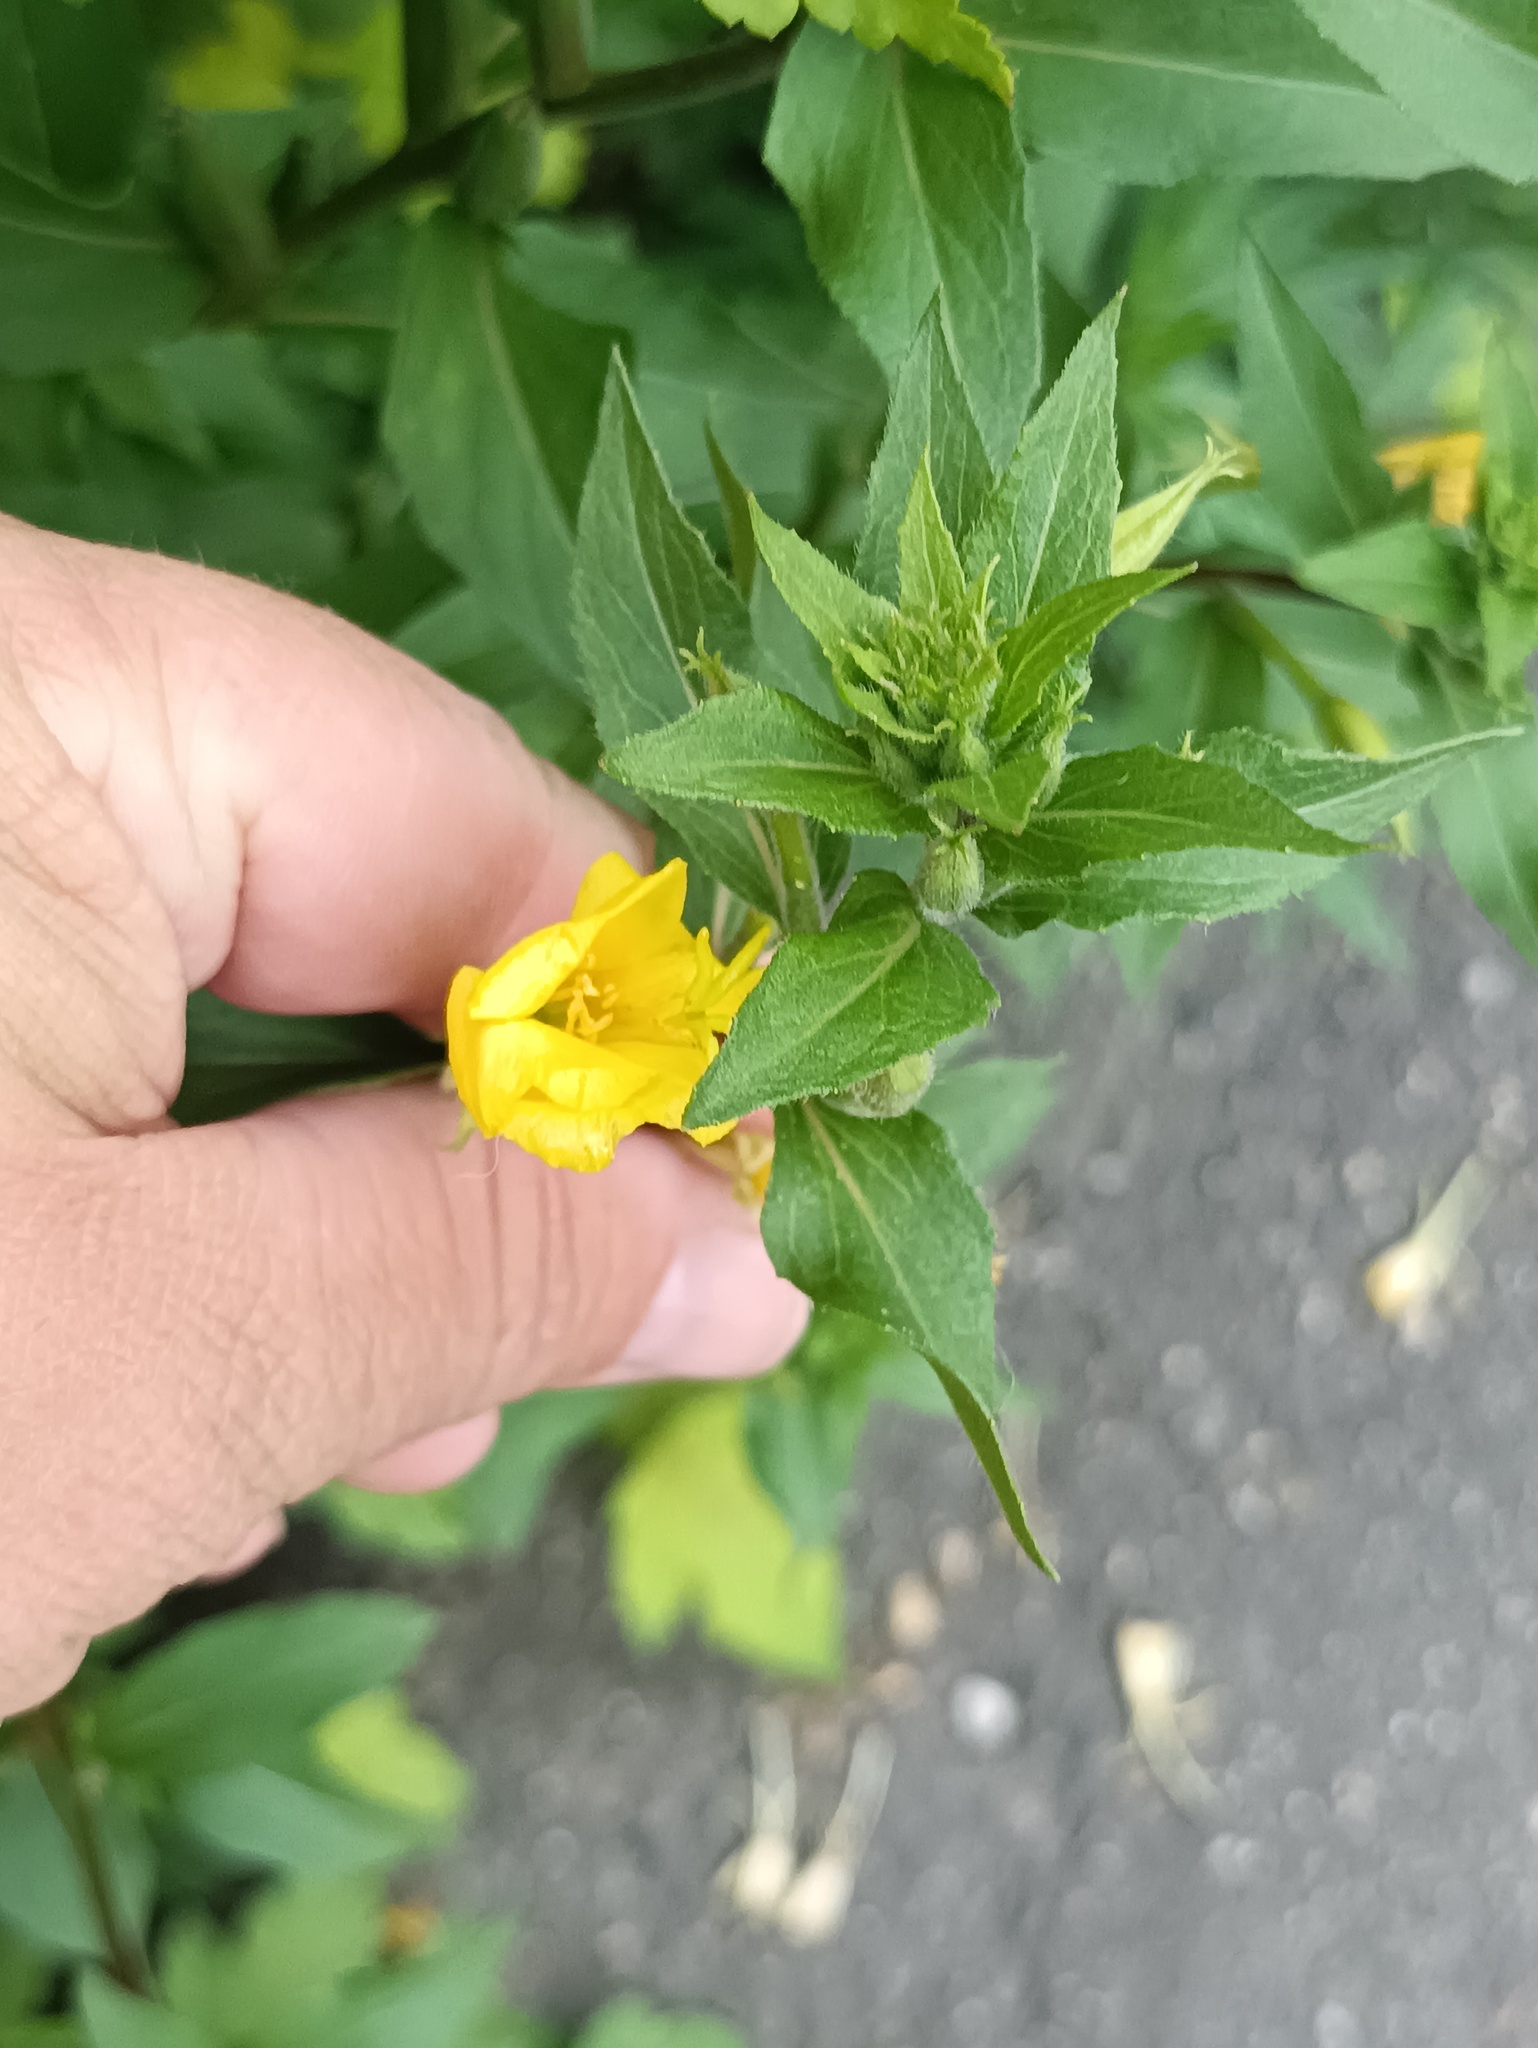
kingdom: Plantae
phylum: Tracheophyta
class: Magnoliopsida
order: Myrtales
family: Onagraceae
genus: Oenothera
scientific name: Oenothera rubricaulis
